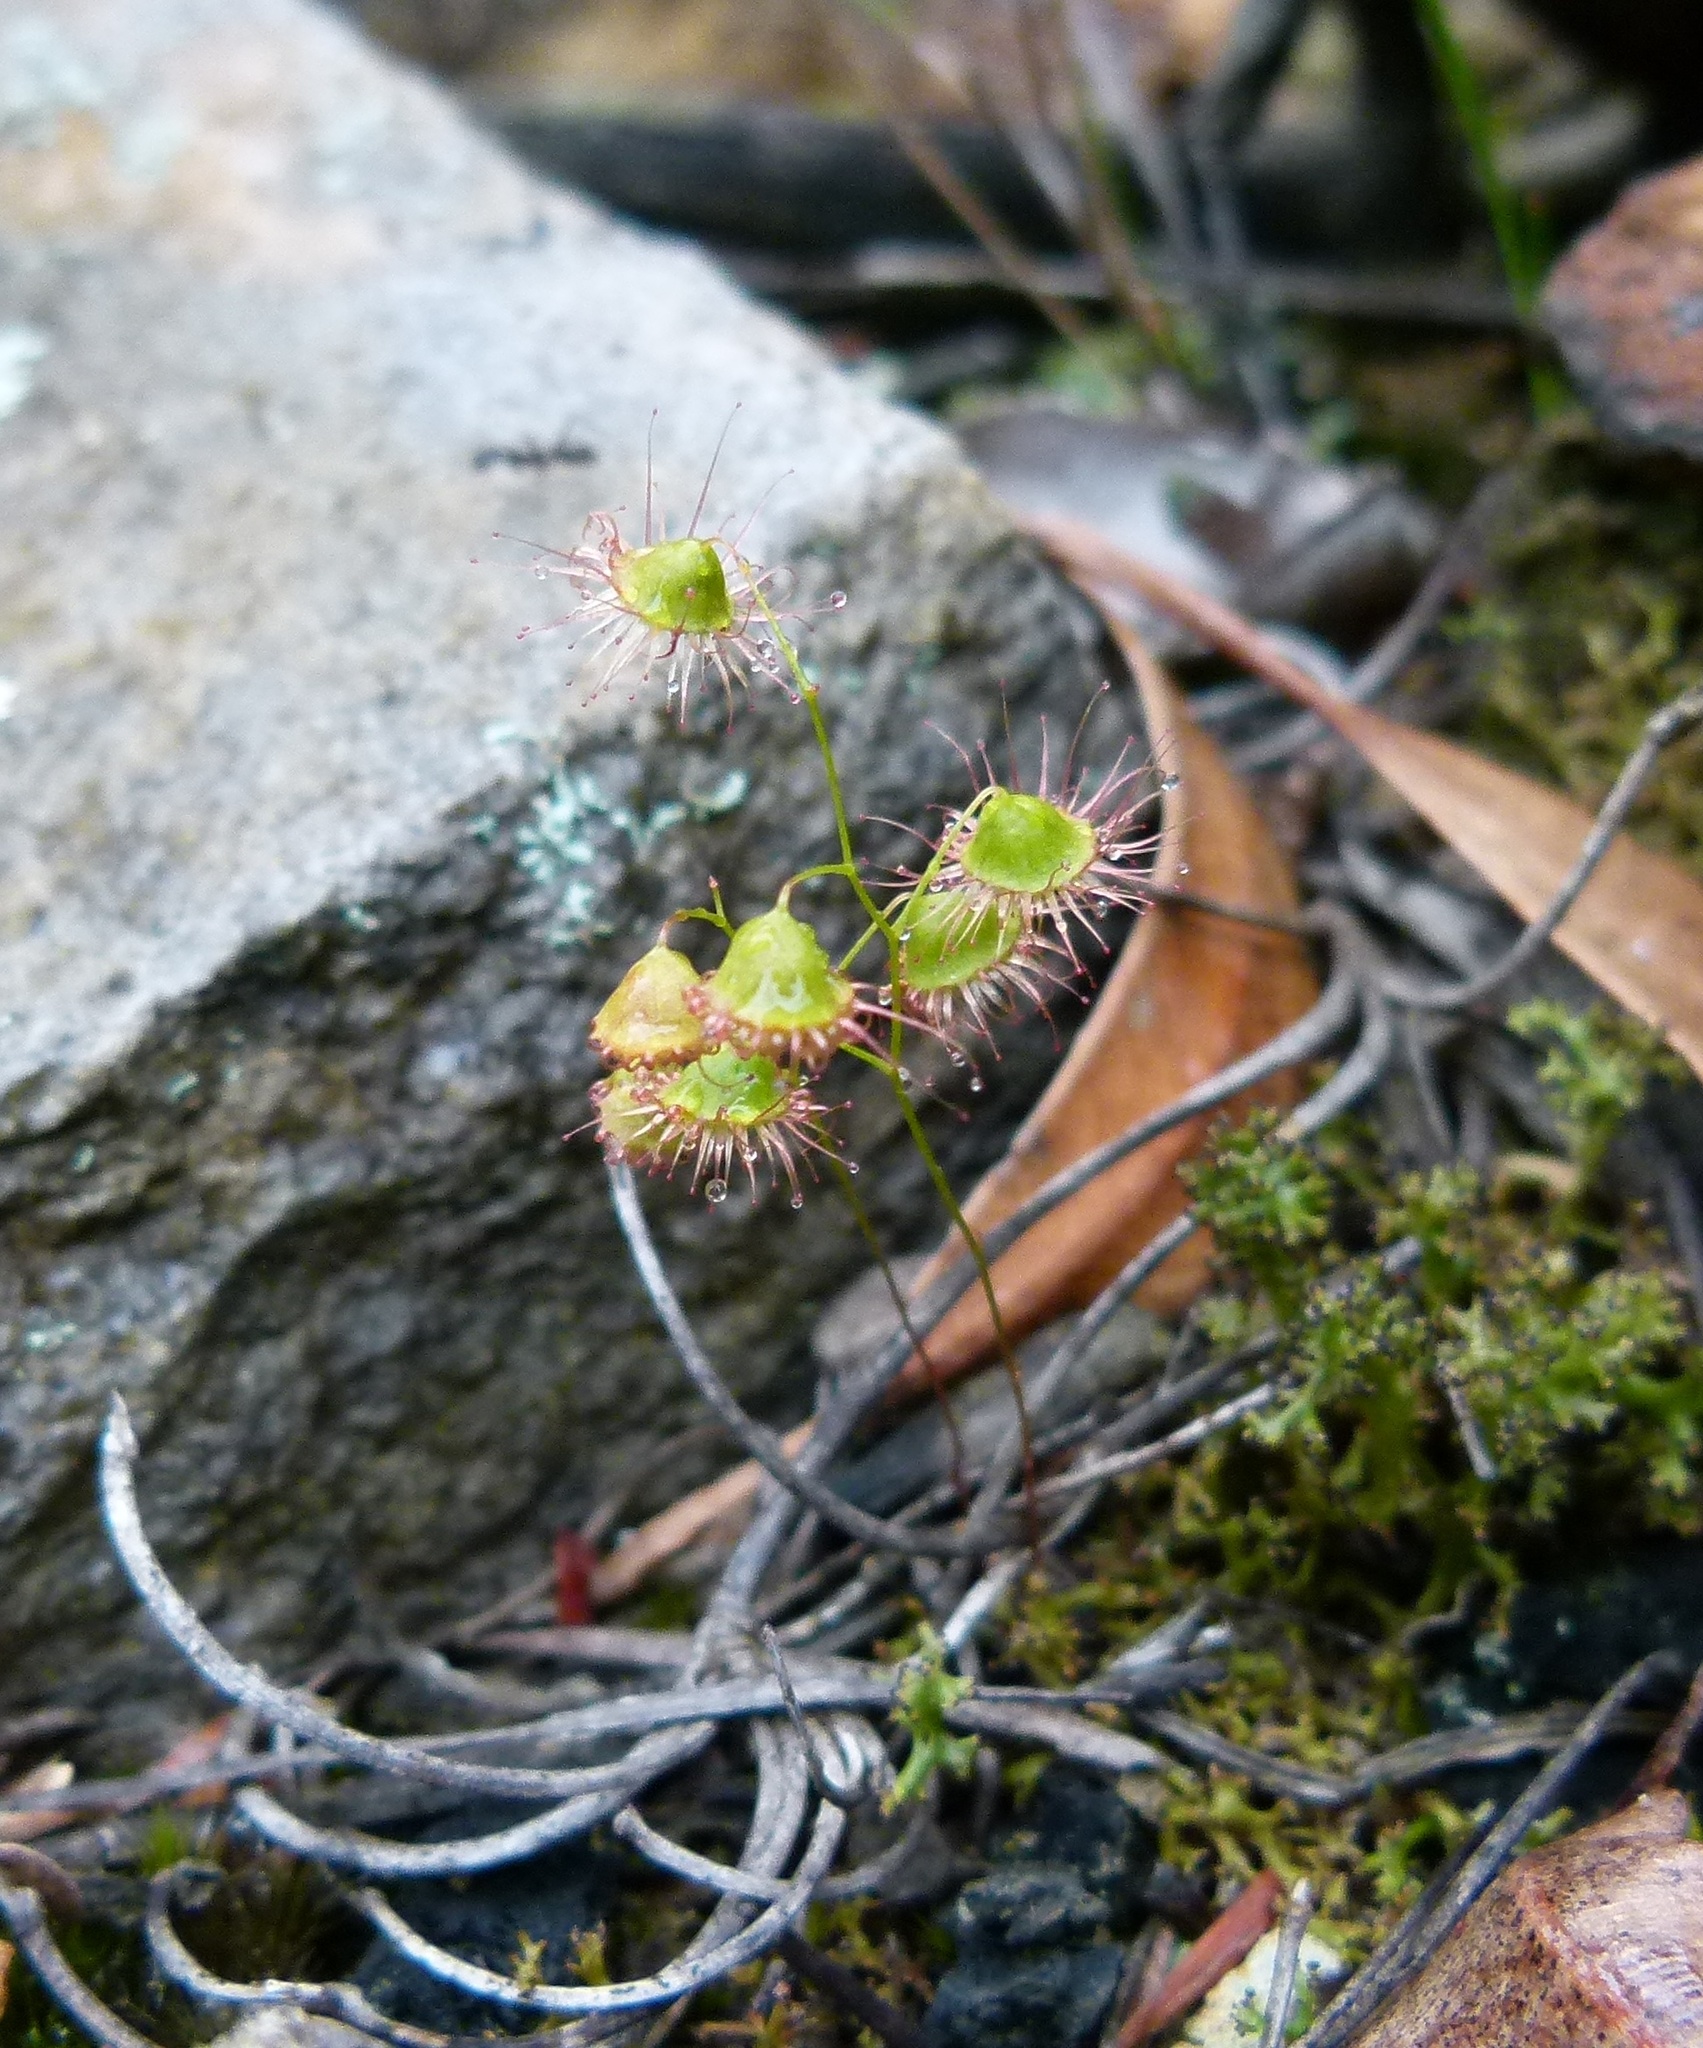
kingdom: Plantae
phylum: Tracheophyta
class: Magnoliopsida
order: Caryophyllales
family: Droseraceae
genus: Drosera
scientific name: Drosera huegelii
